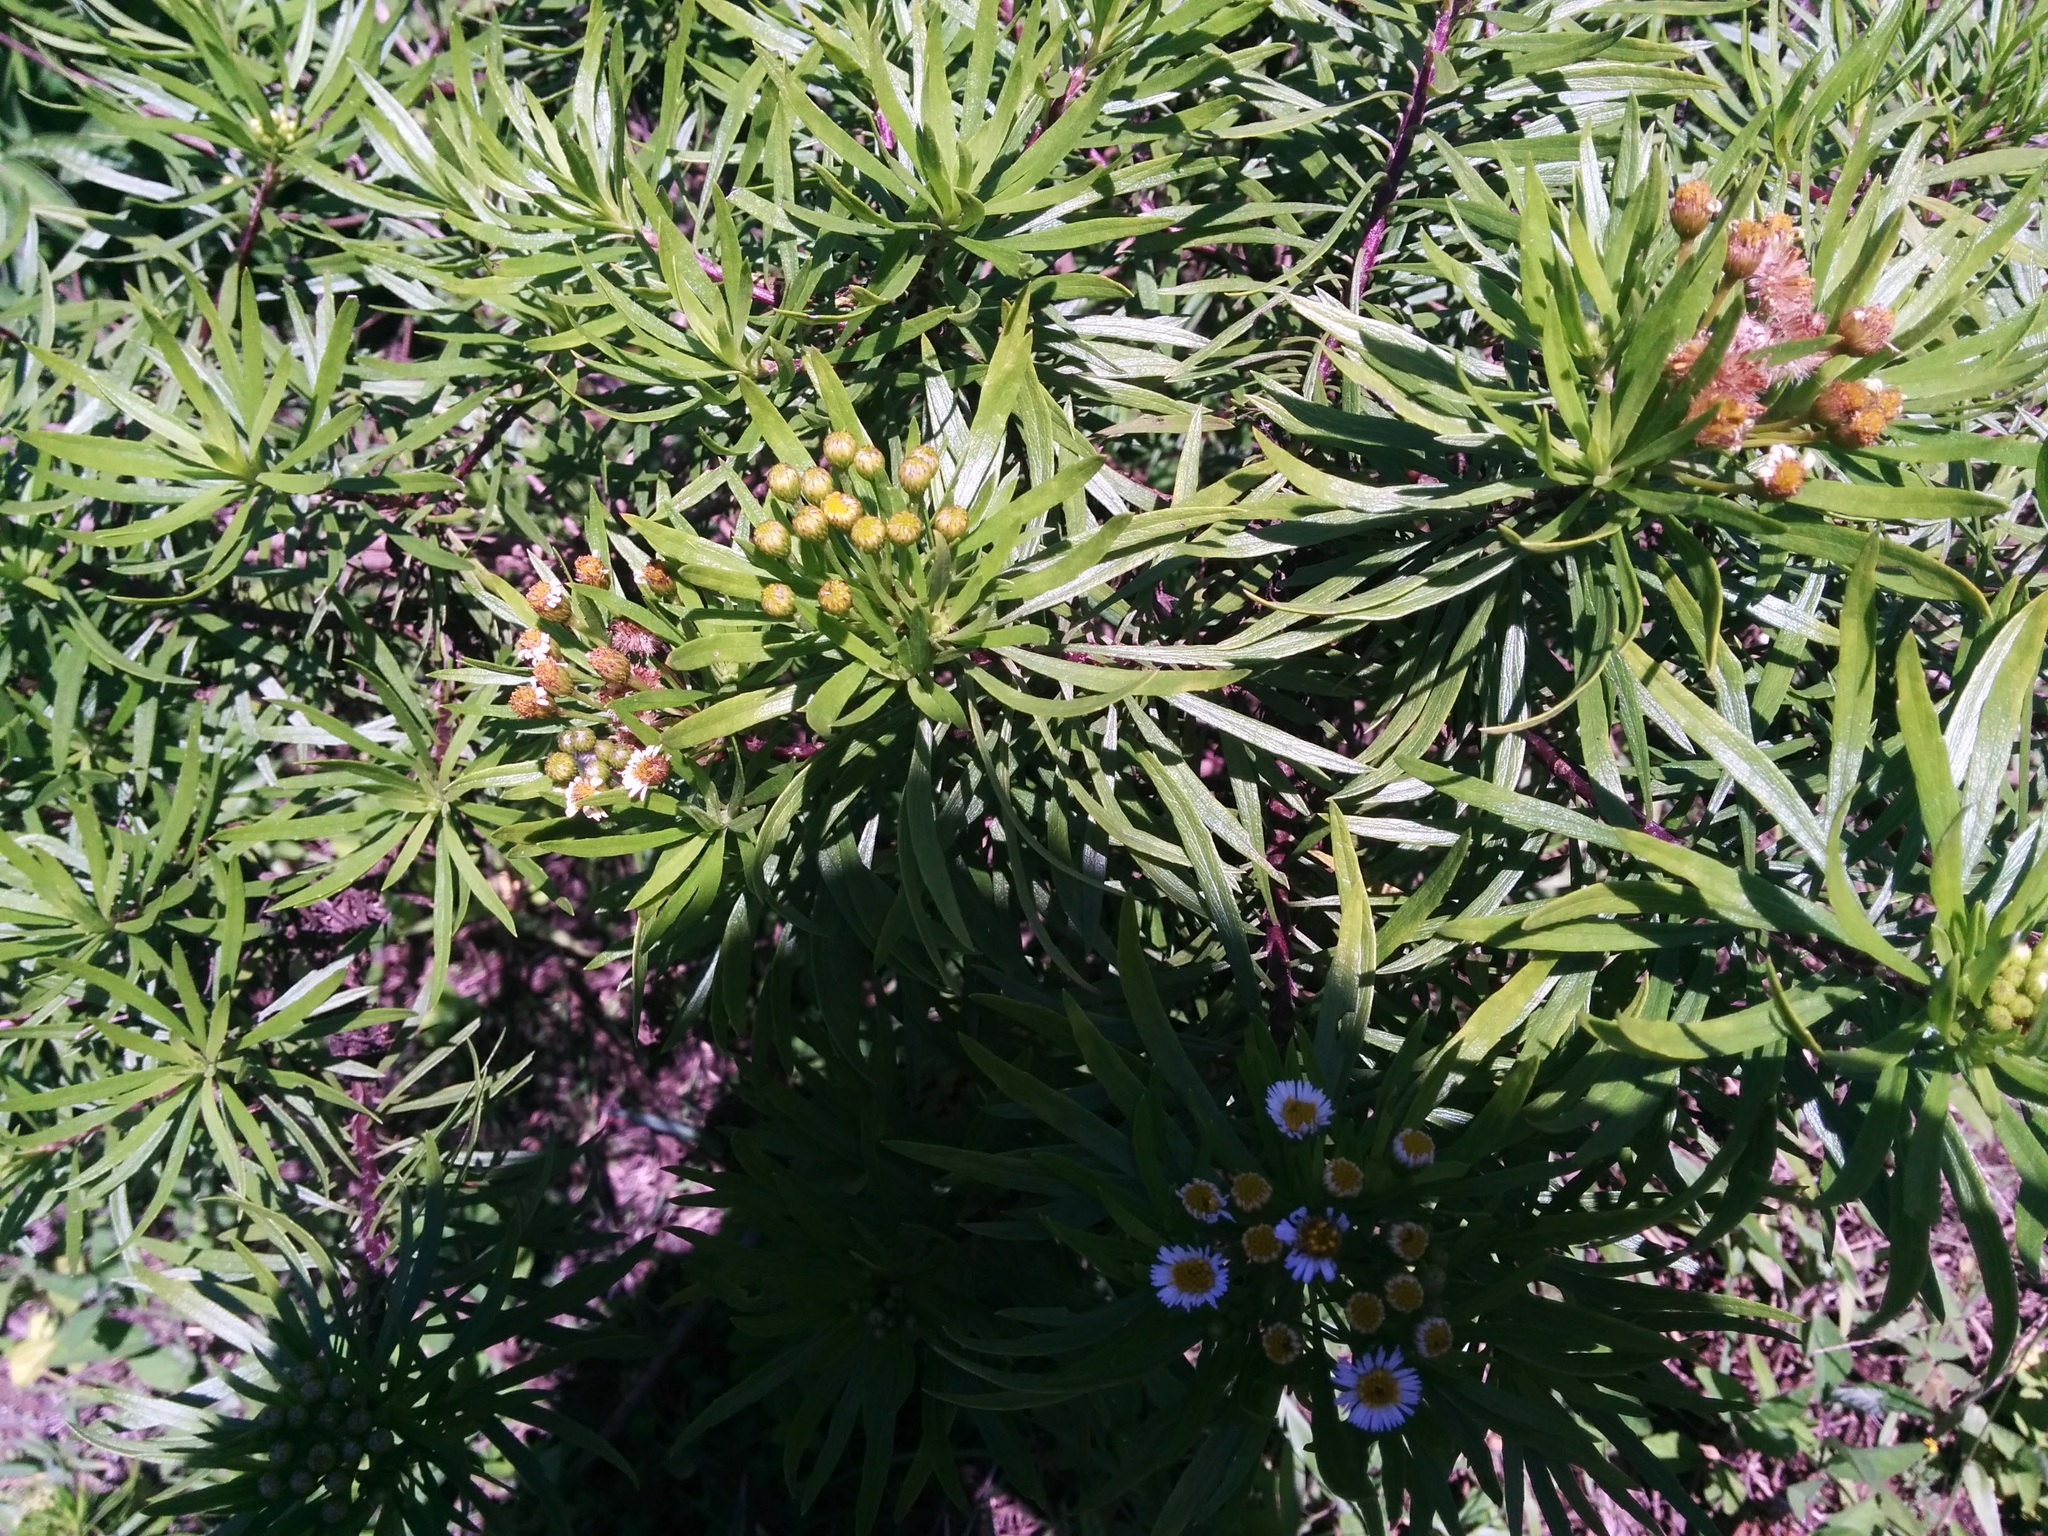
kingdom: Plantae
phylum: Tracheophyta
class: Magnoliopsida
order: Asterales
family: Asteraceae
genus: Erigeron
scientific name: Erigeron tenuifolius
